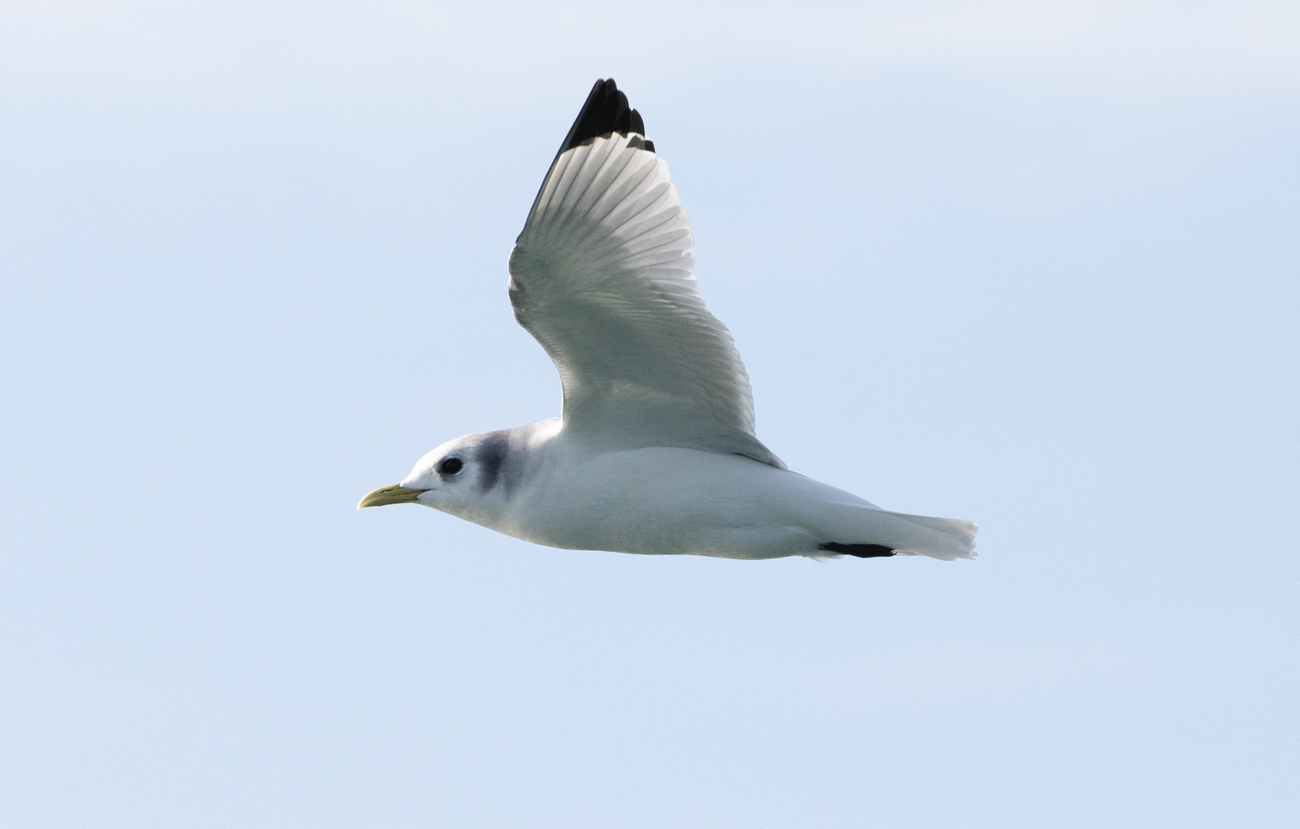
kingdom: Animalia
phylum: Chordata
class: Aves
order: Charadriiformes
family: Laridae
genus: Rissa
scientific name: Rissa tridactyla
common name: Black-legged kittiwake
